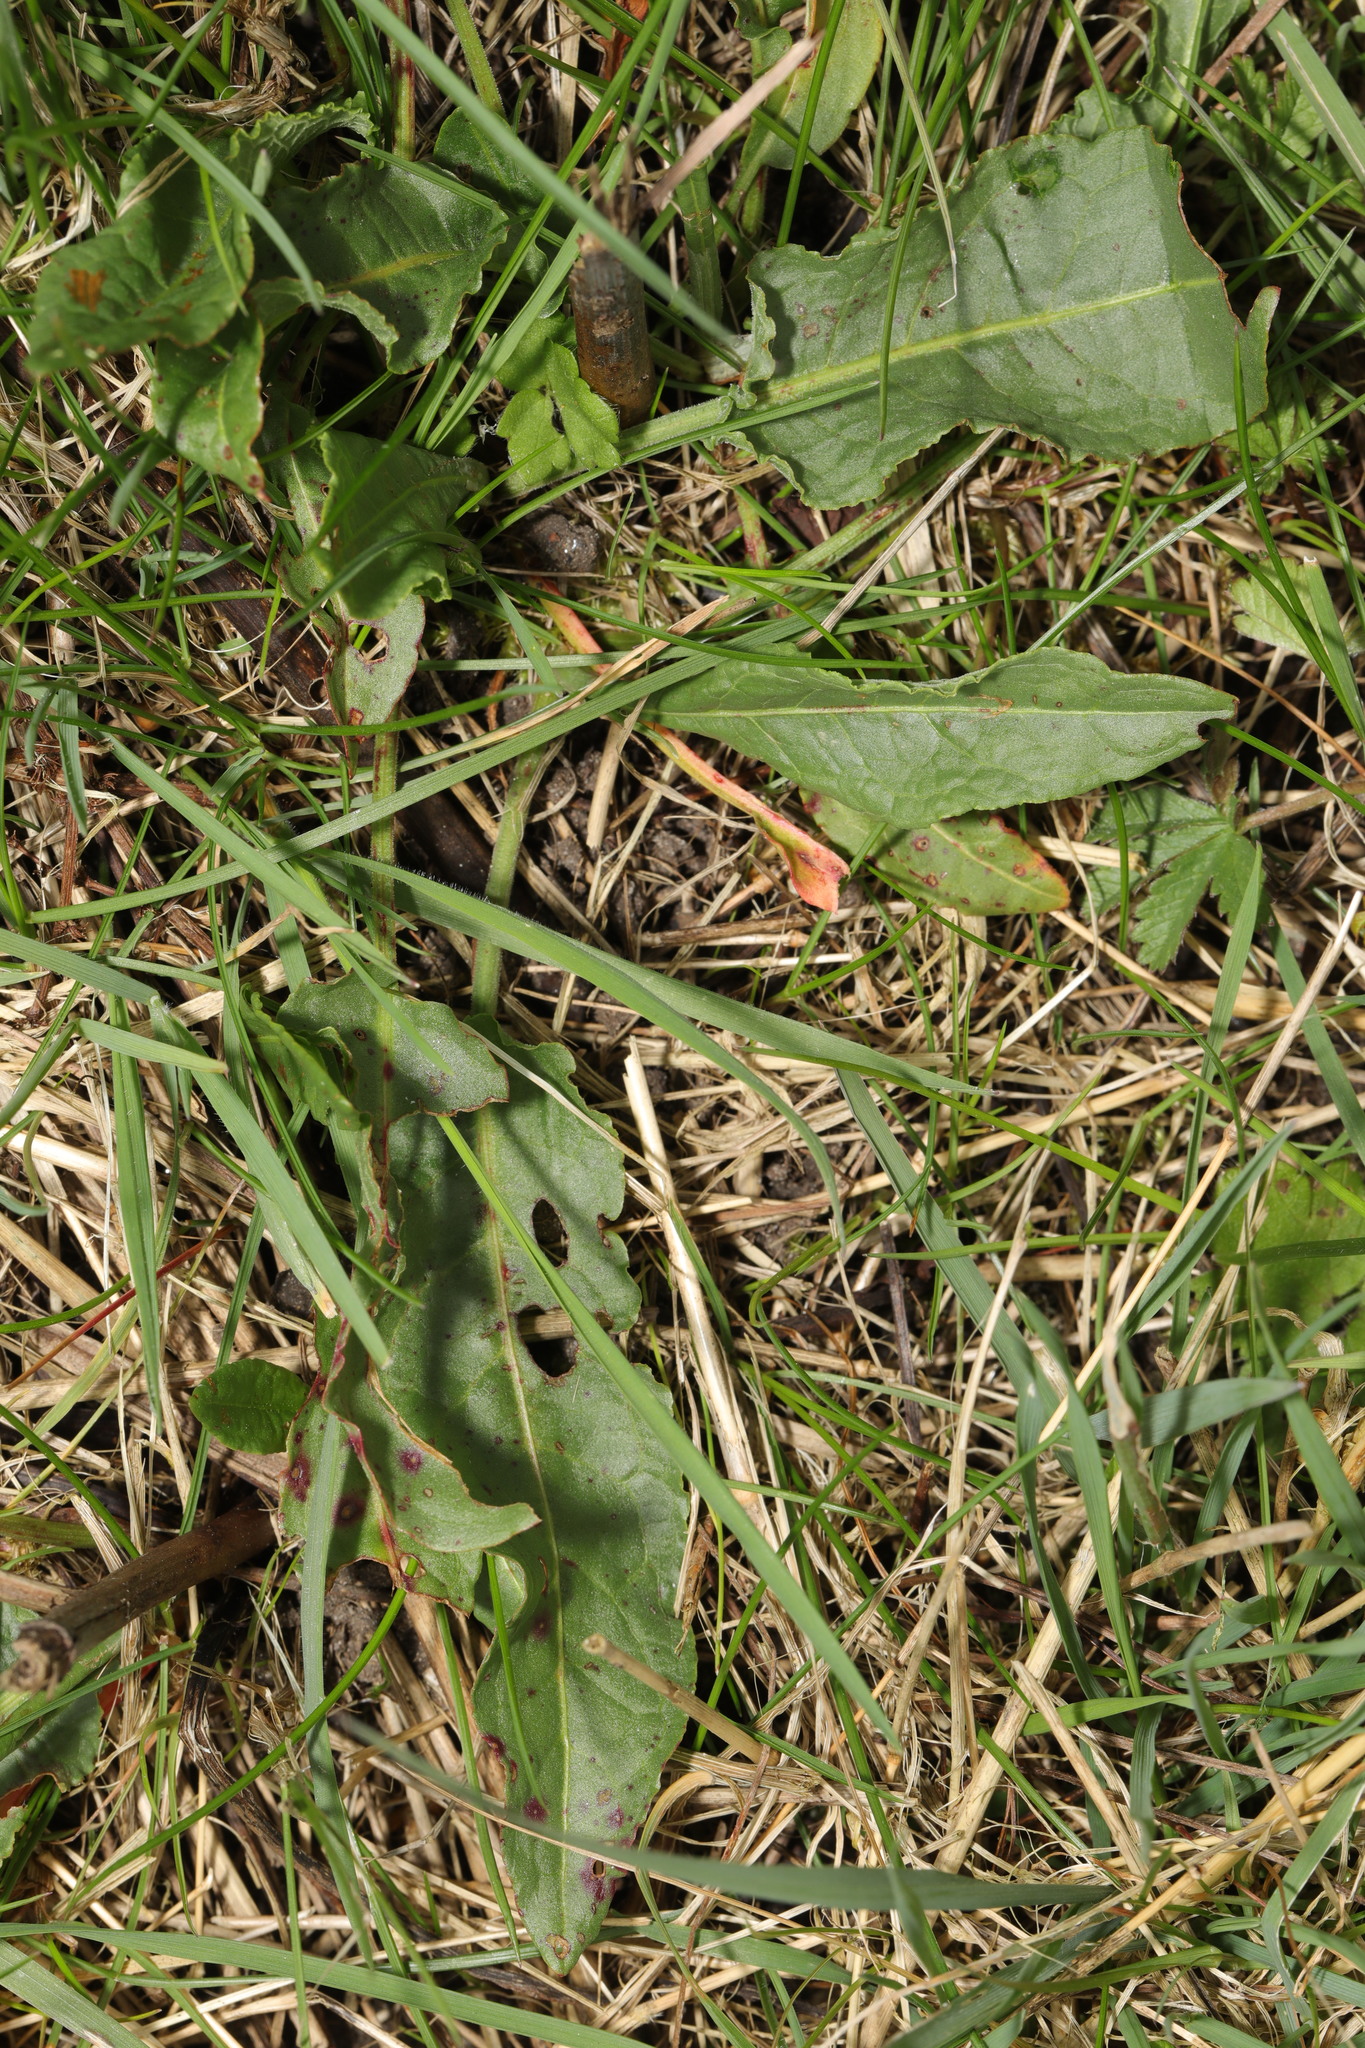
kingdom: Plantae
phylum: Tracheophyta
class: Magnoliopsida
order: Caryophyllales
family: Polygonaceae
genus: Rumex
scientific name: Rumex crispus
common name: Curled dock
